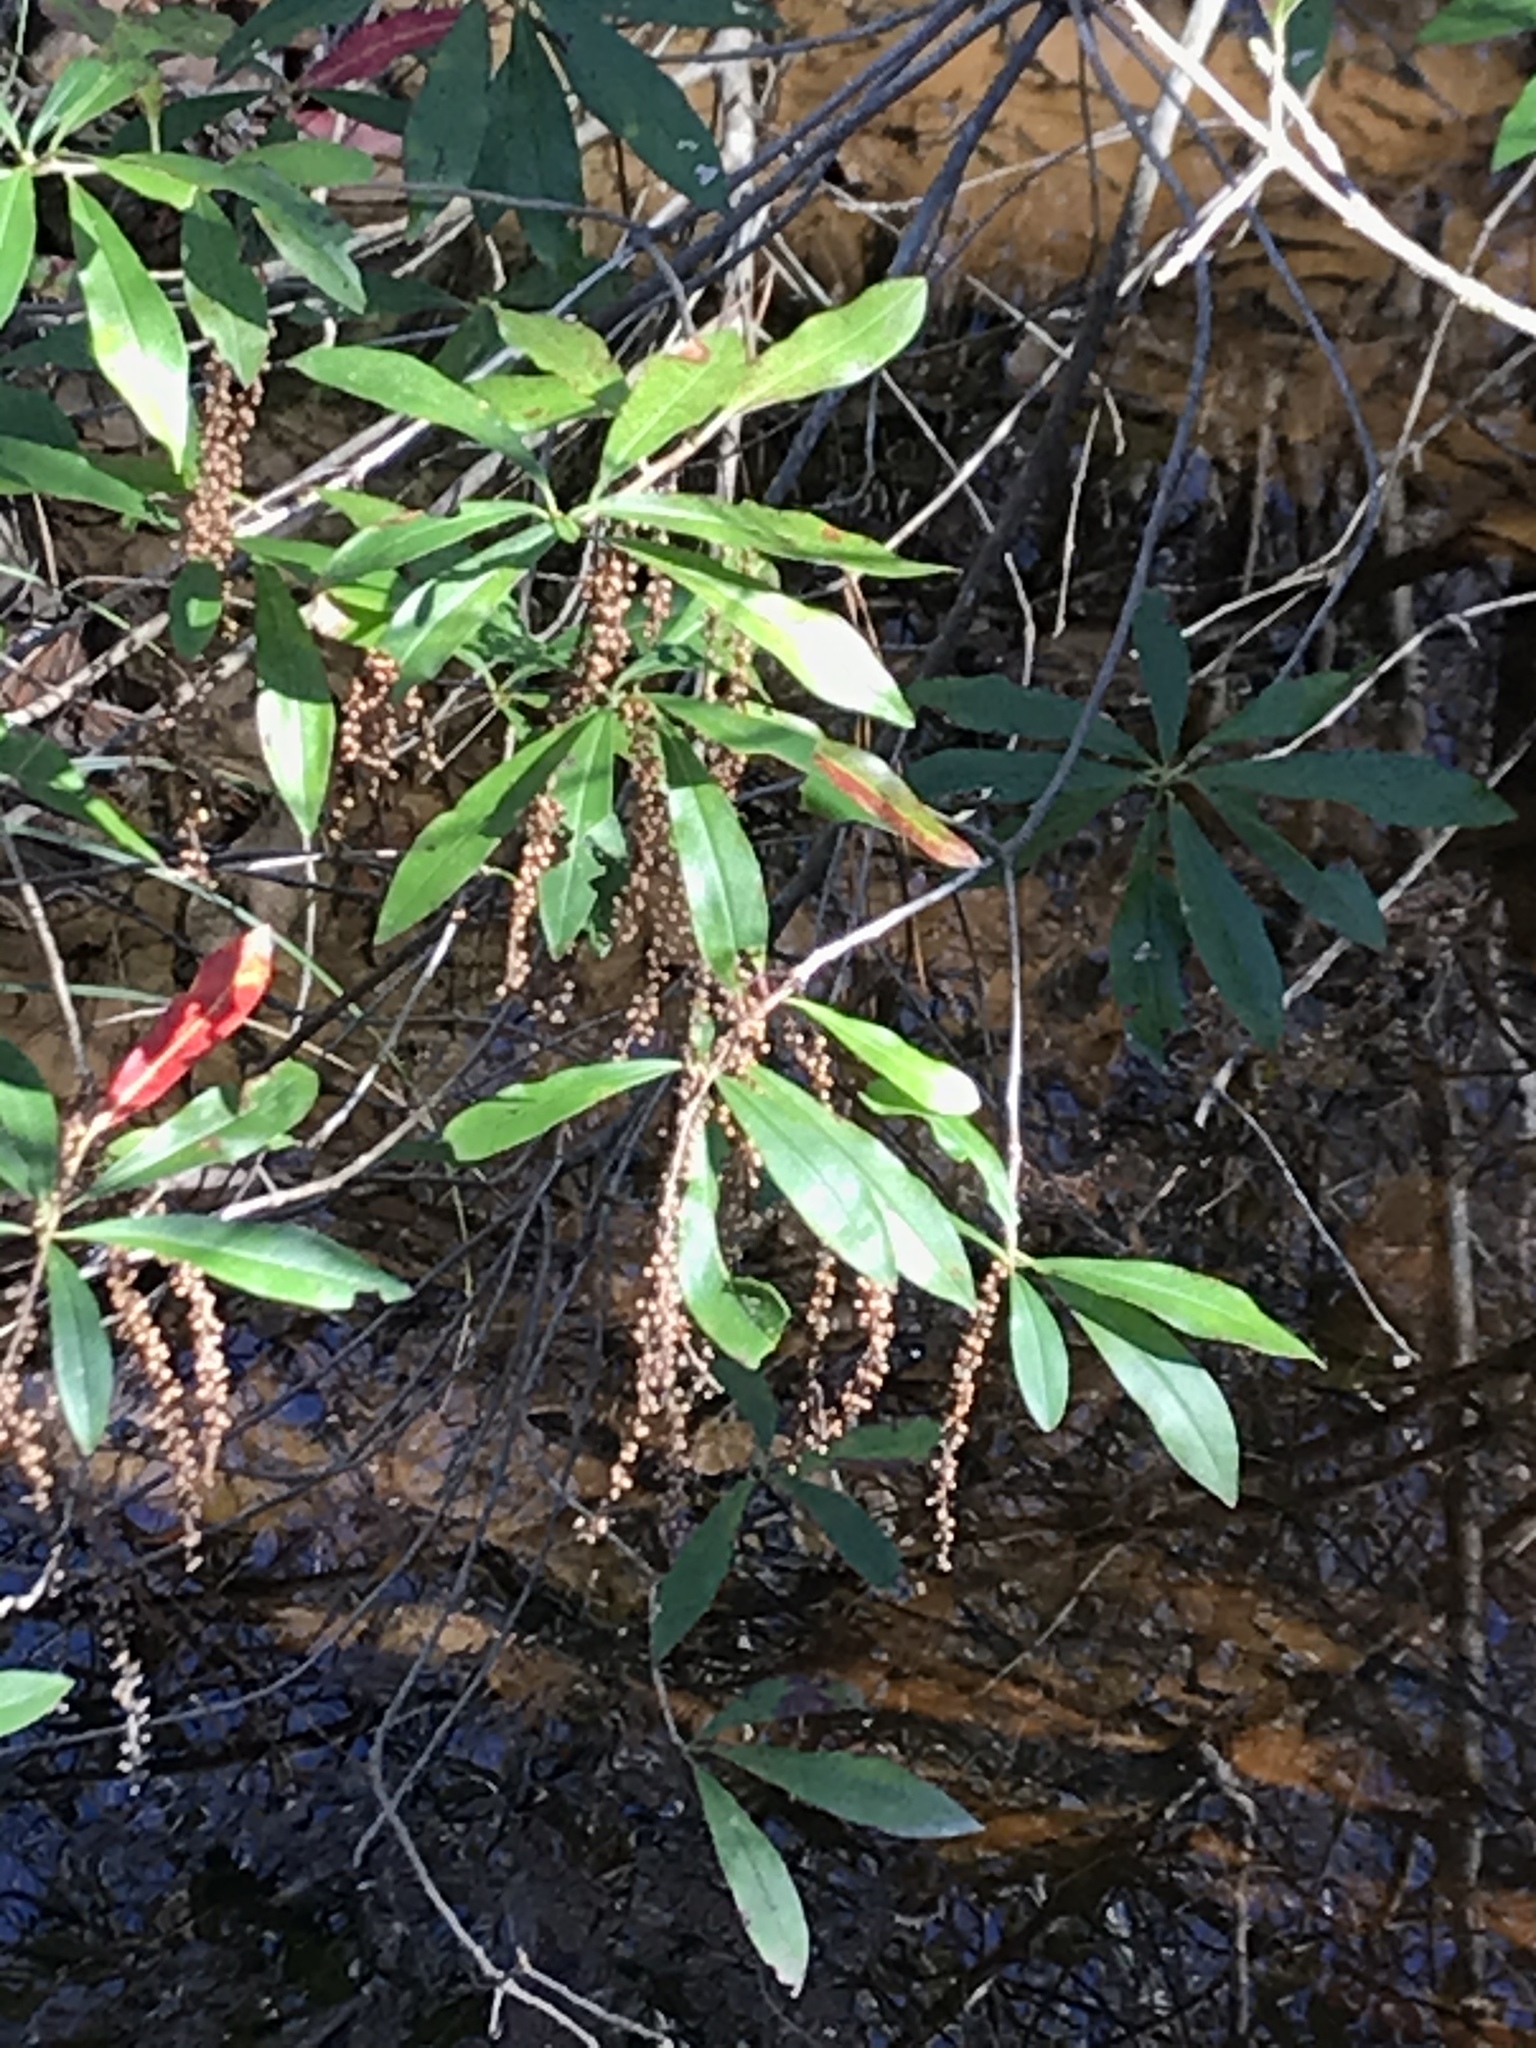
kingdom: Plantae
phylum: Tracheophyta
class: Magnoliopsida
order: Ericales
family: Cyrillaceae
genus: Cyrilla
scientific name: Cyrilla racemiflora
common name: Black titi
